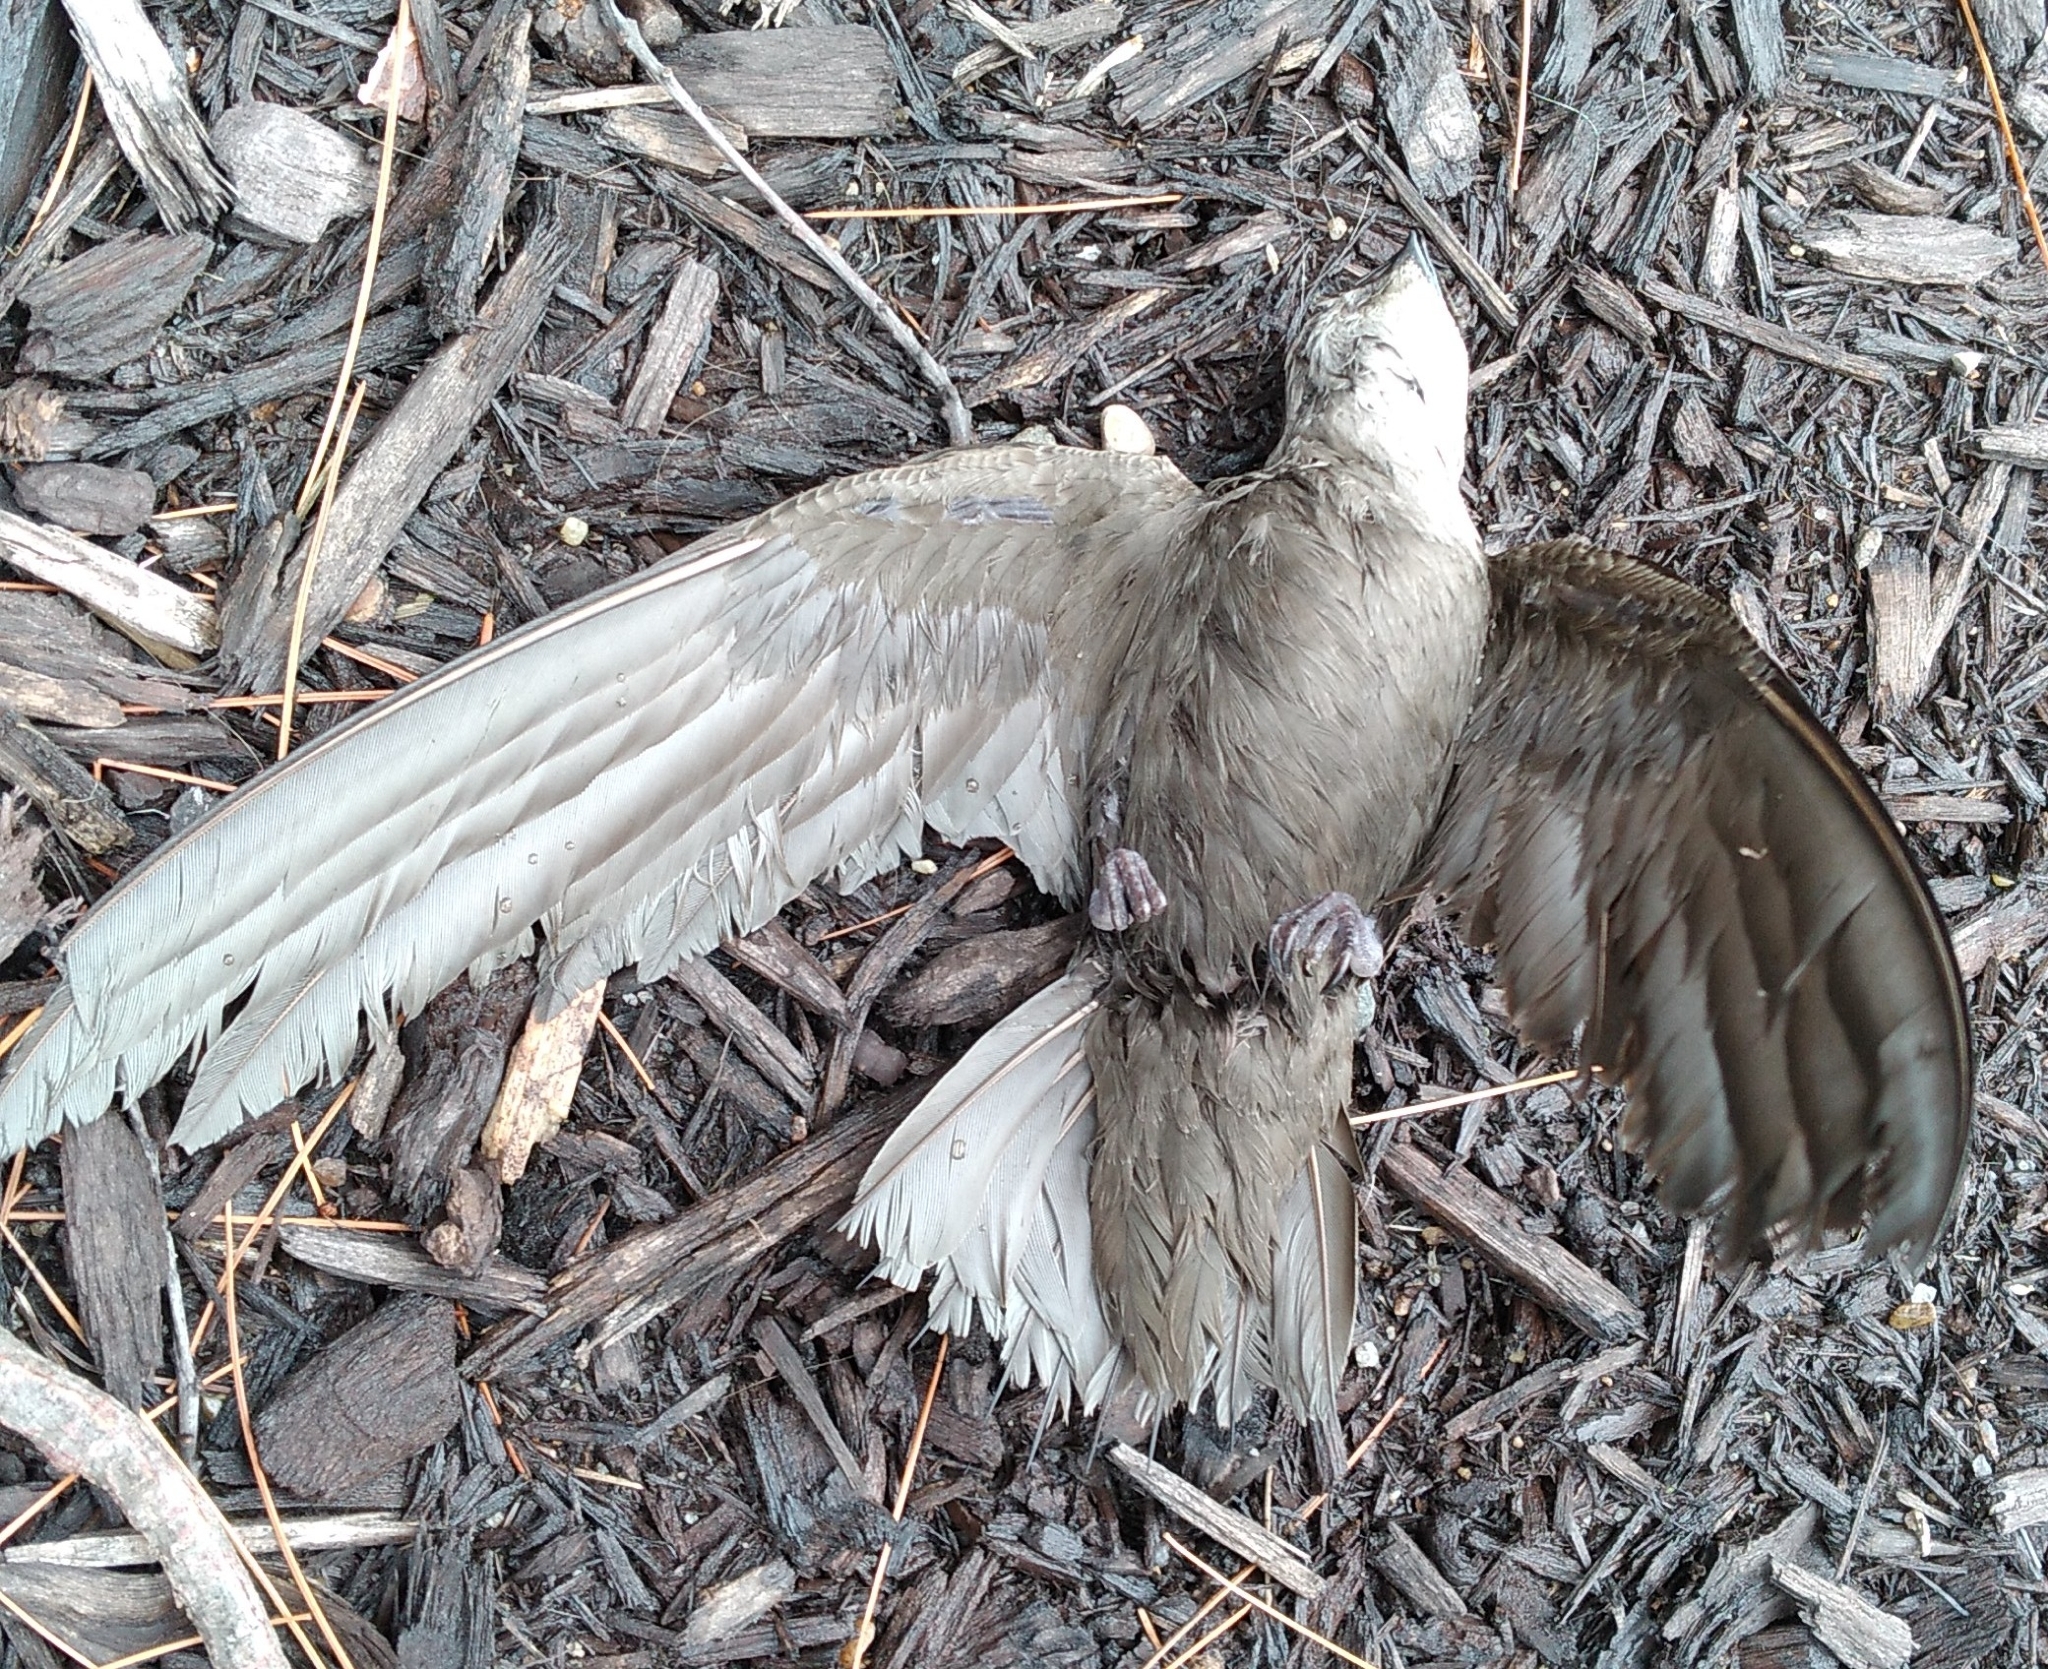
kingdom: Animalia
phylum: Chordata
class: Aves
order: Apodiformes
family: Apodidae
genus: Chaetura
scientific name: Chaetura pelagica
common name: Chimney swift
